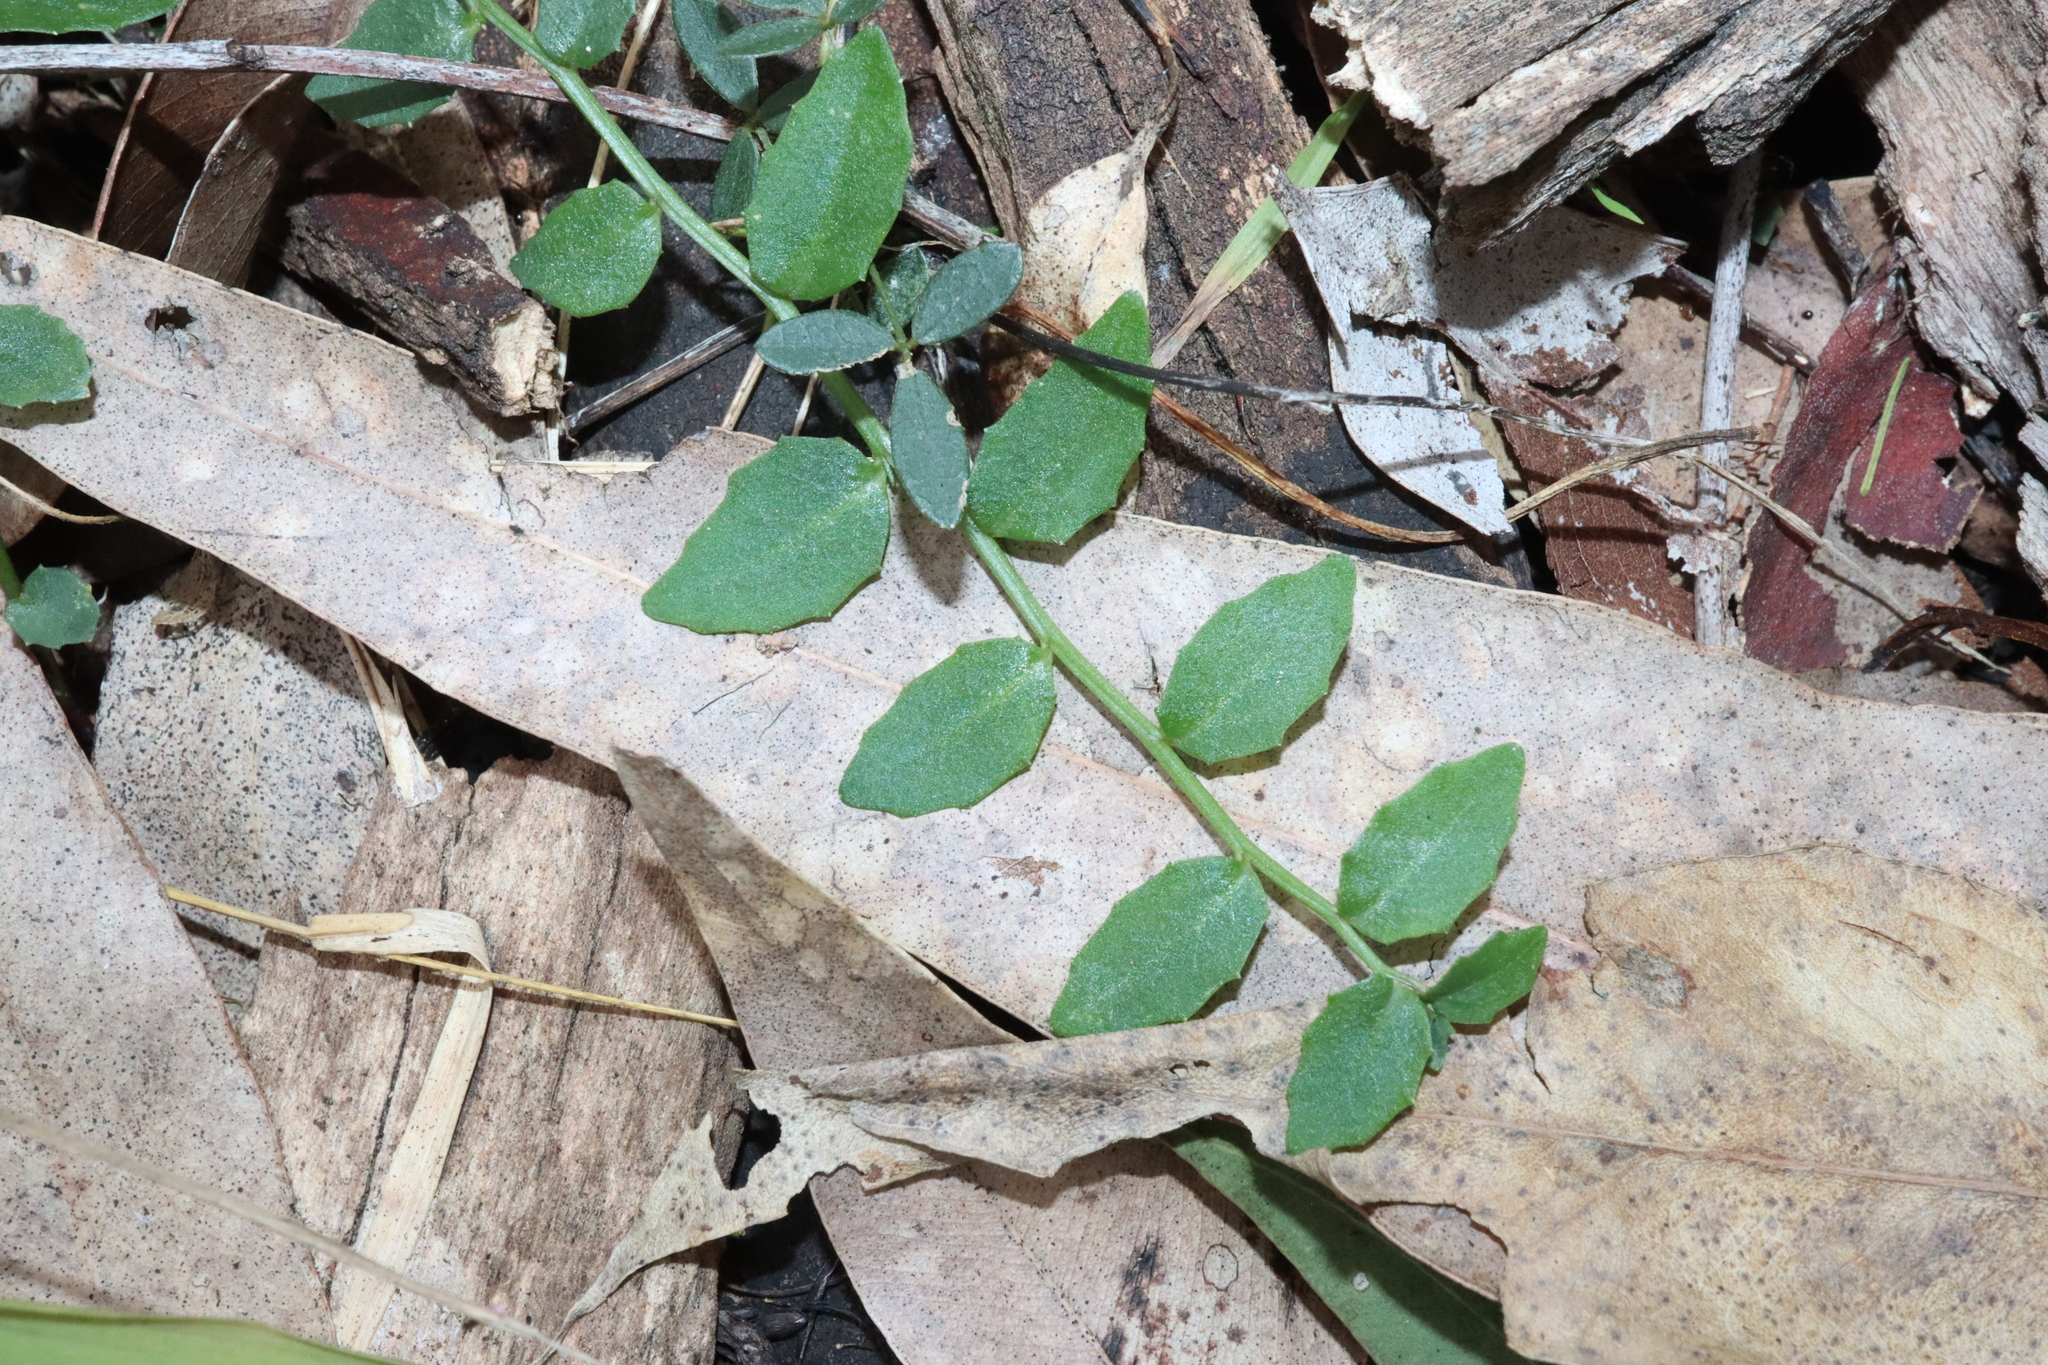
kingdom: Plantae
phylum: Tracheophyta
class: Magnoliopsida
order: Asterales
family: Campanulaceae
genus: Lobelia
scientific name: Lobelia purpurascens
